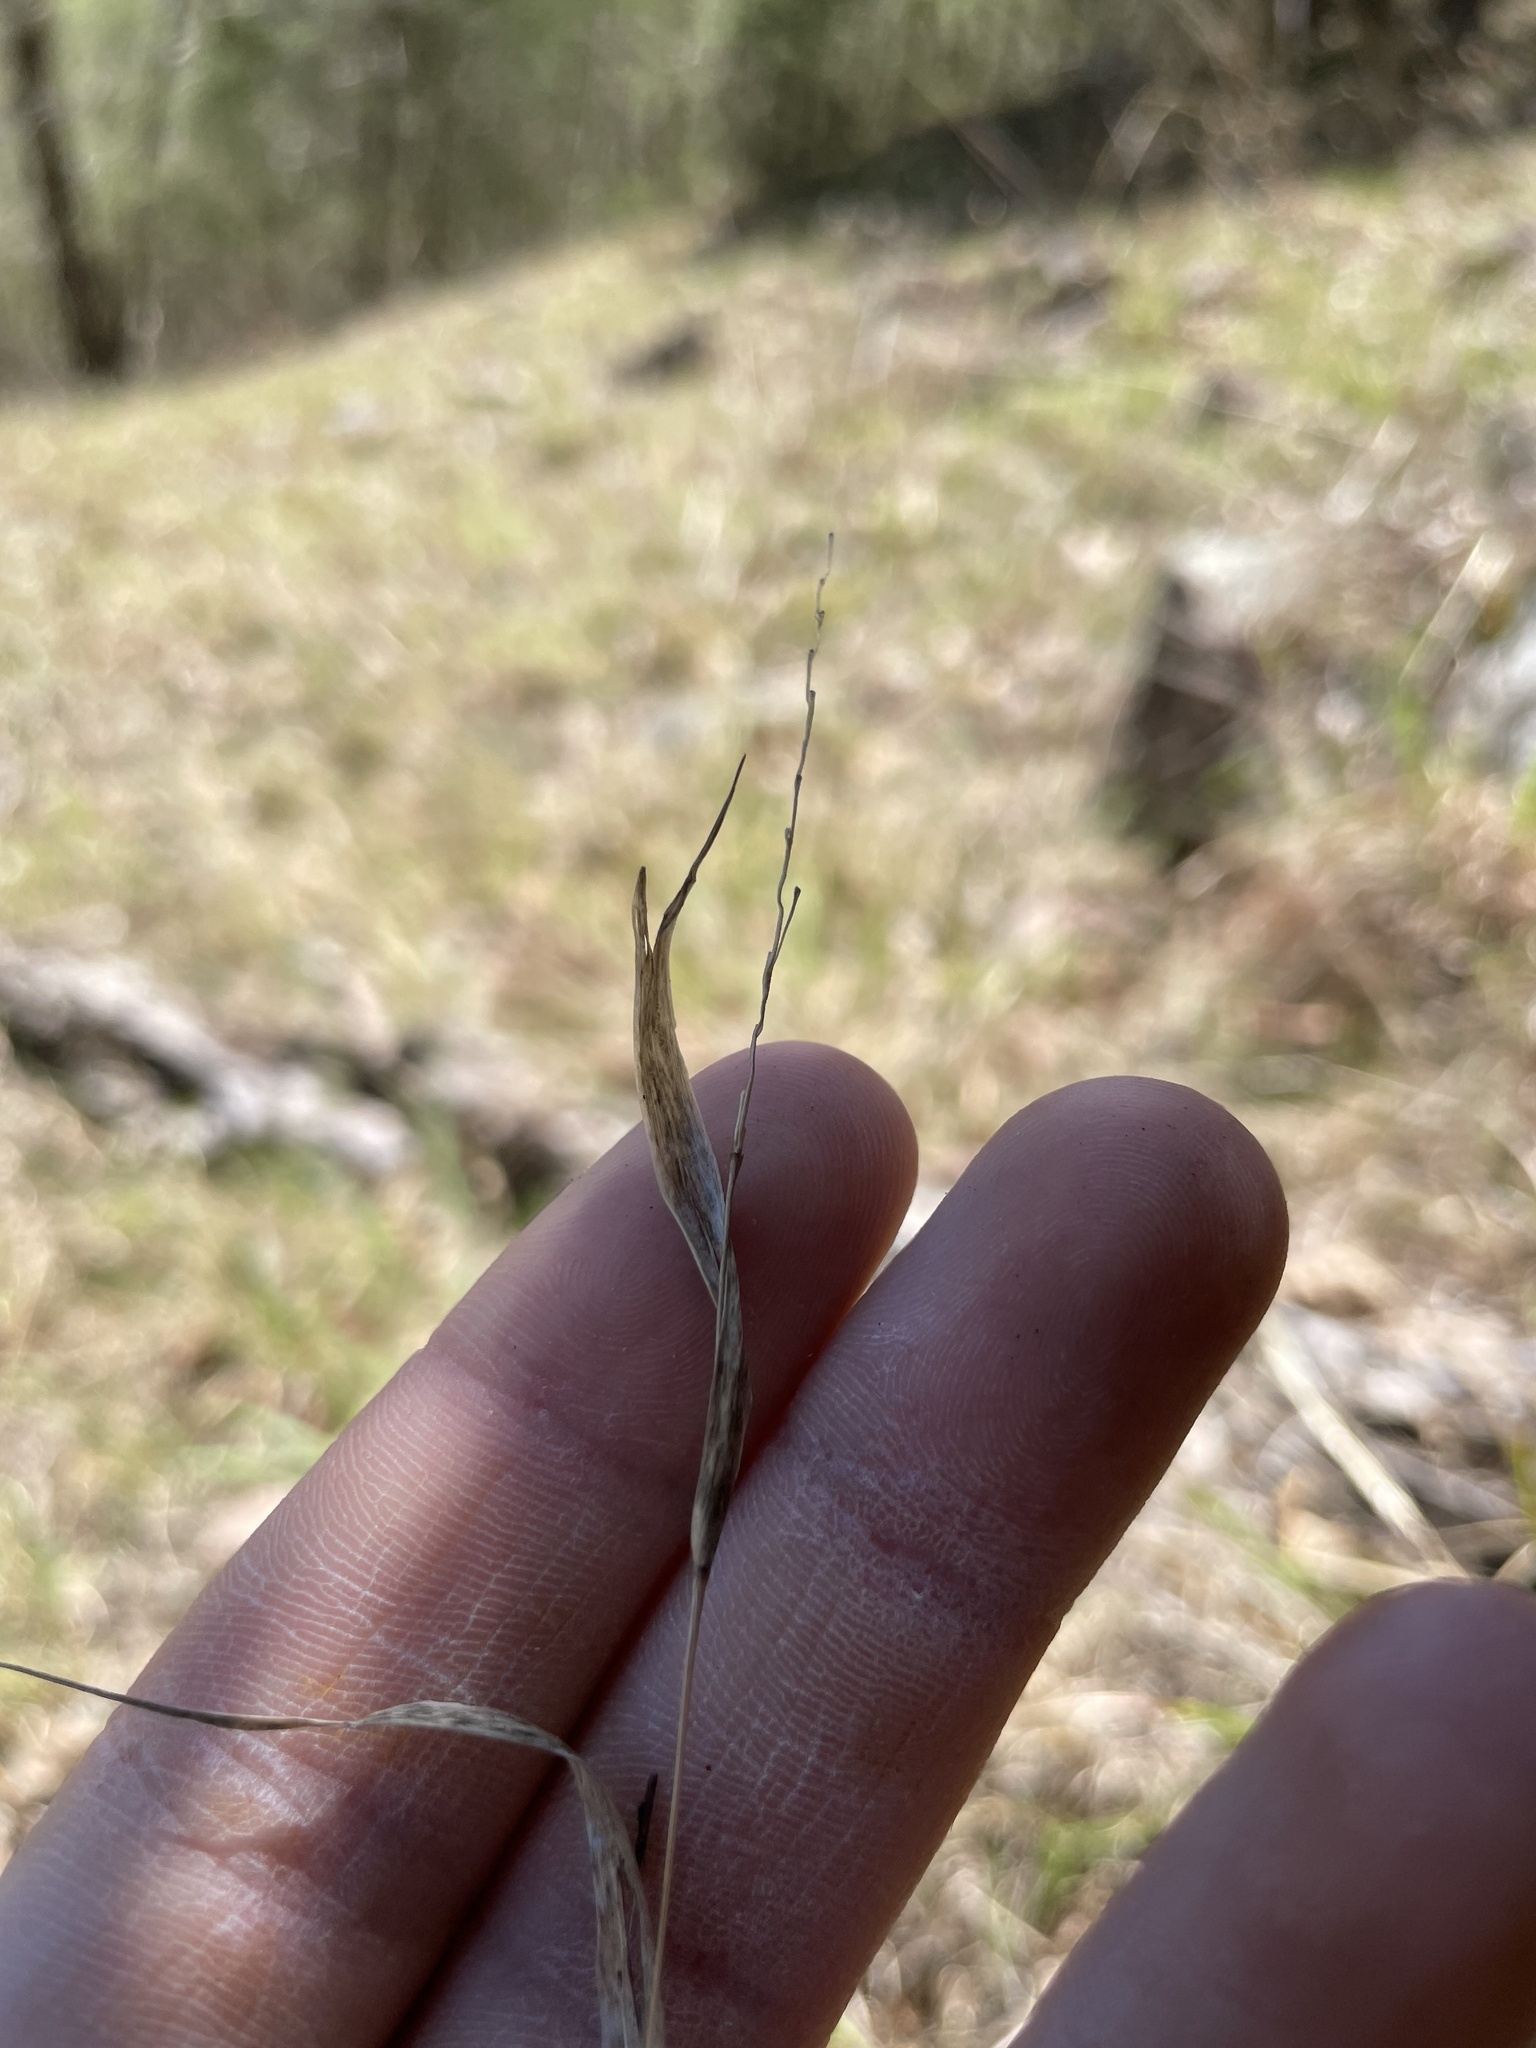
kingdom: Plantae
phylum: Tracheophyta
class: Liliopsida
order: Poales
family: Poaceae
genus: Sporobolus
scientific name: Sporobolus clandestinus
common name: Hidden dropseed
